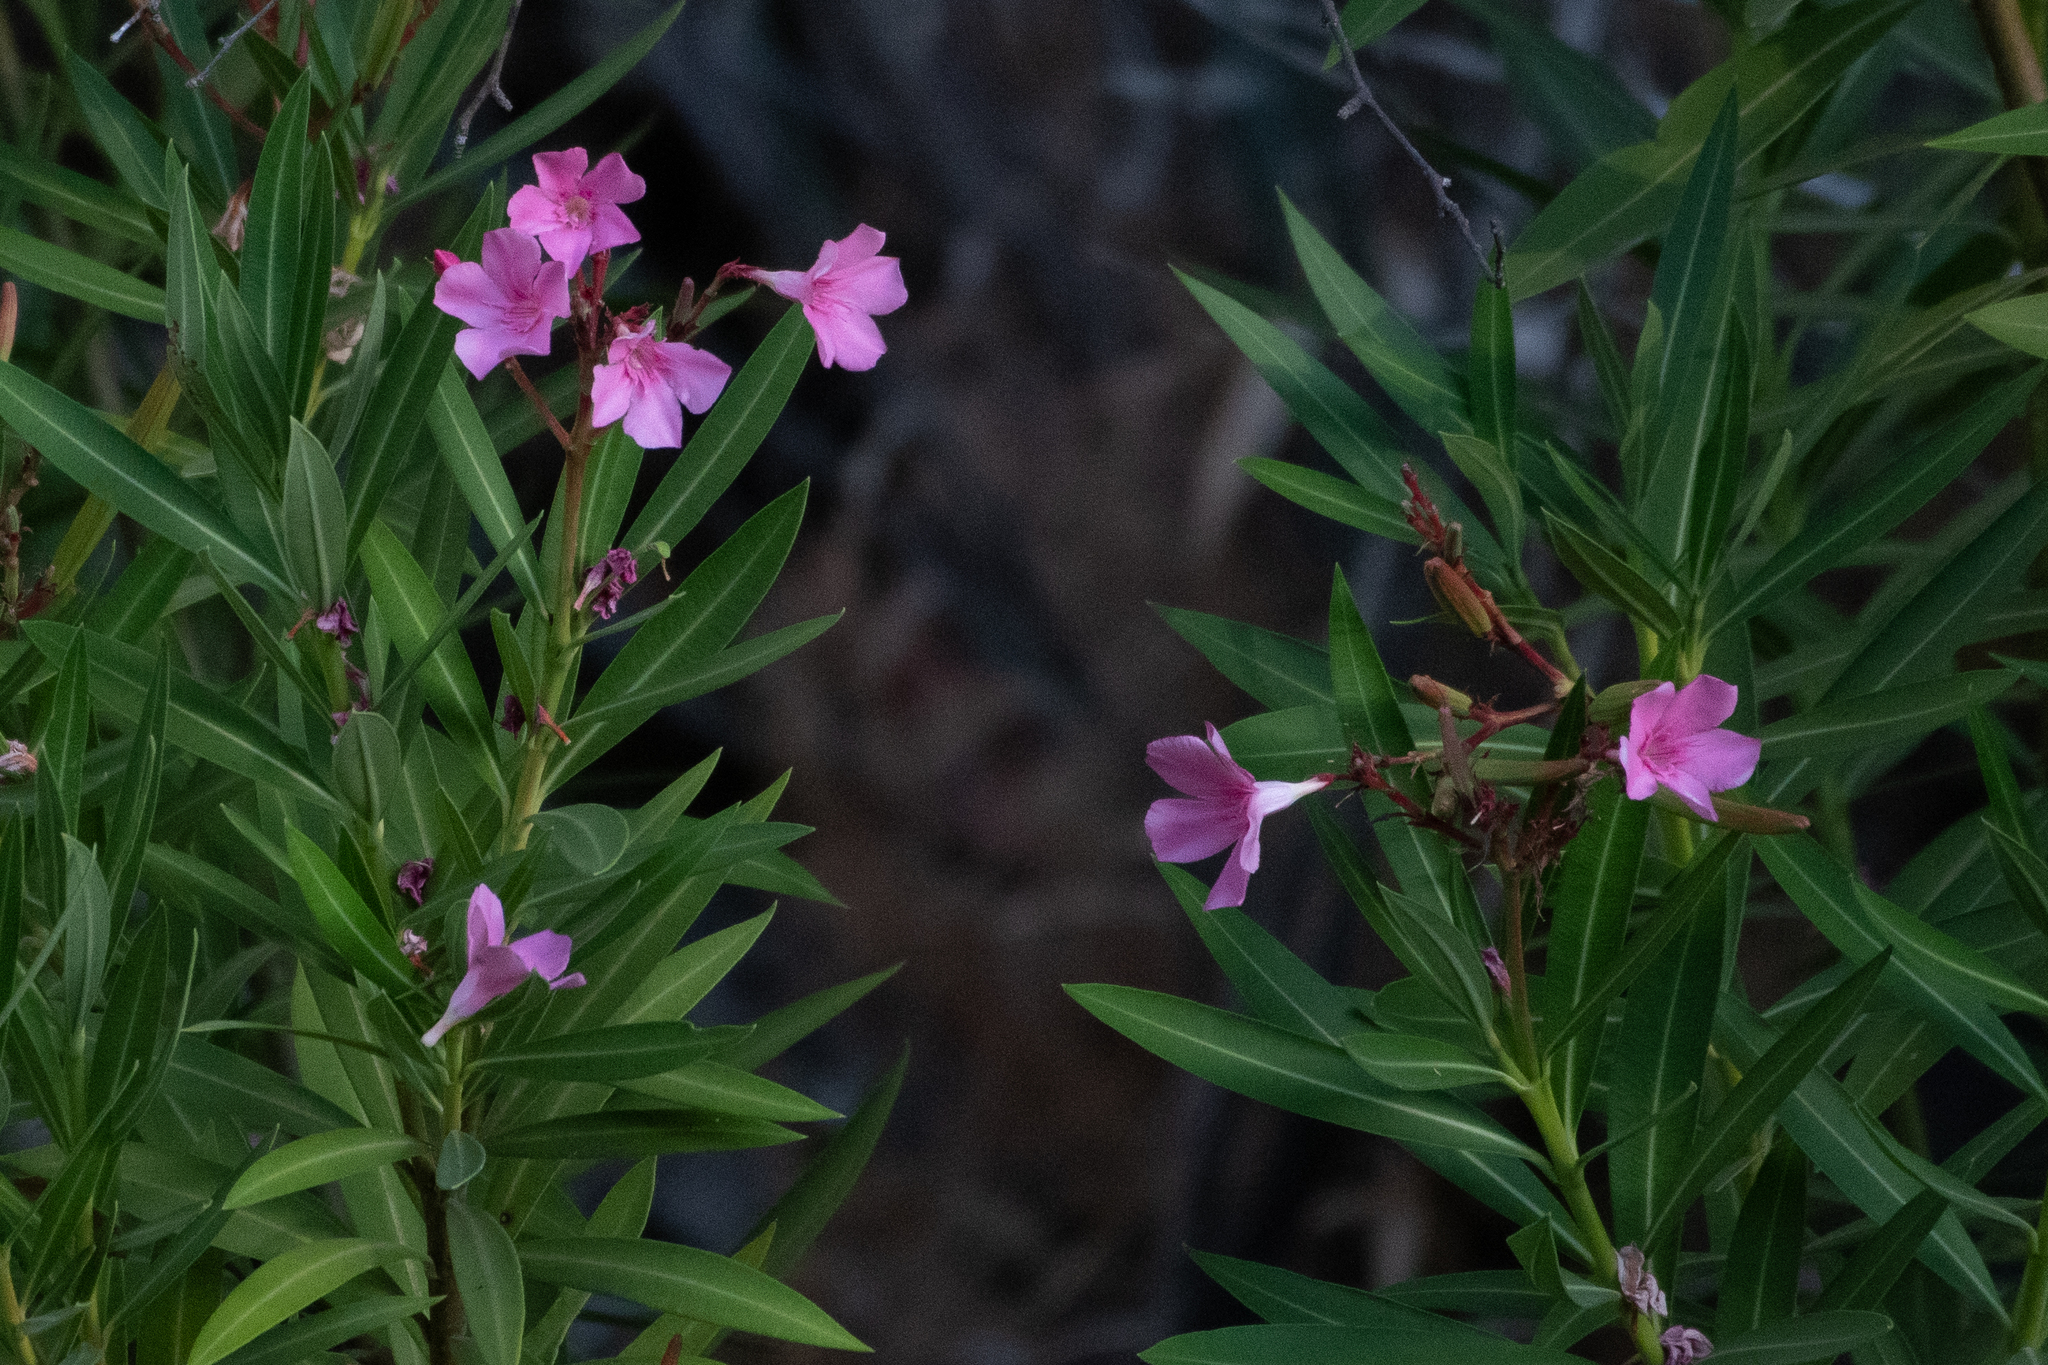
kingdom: Plantae
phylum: Tracheophyta
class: Magnoliopsida
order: Gentianales
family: Apocynaceae
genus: Nerium
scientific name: Nerium oleander
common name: Oleander
